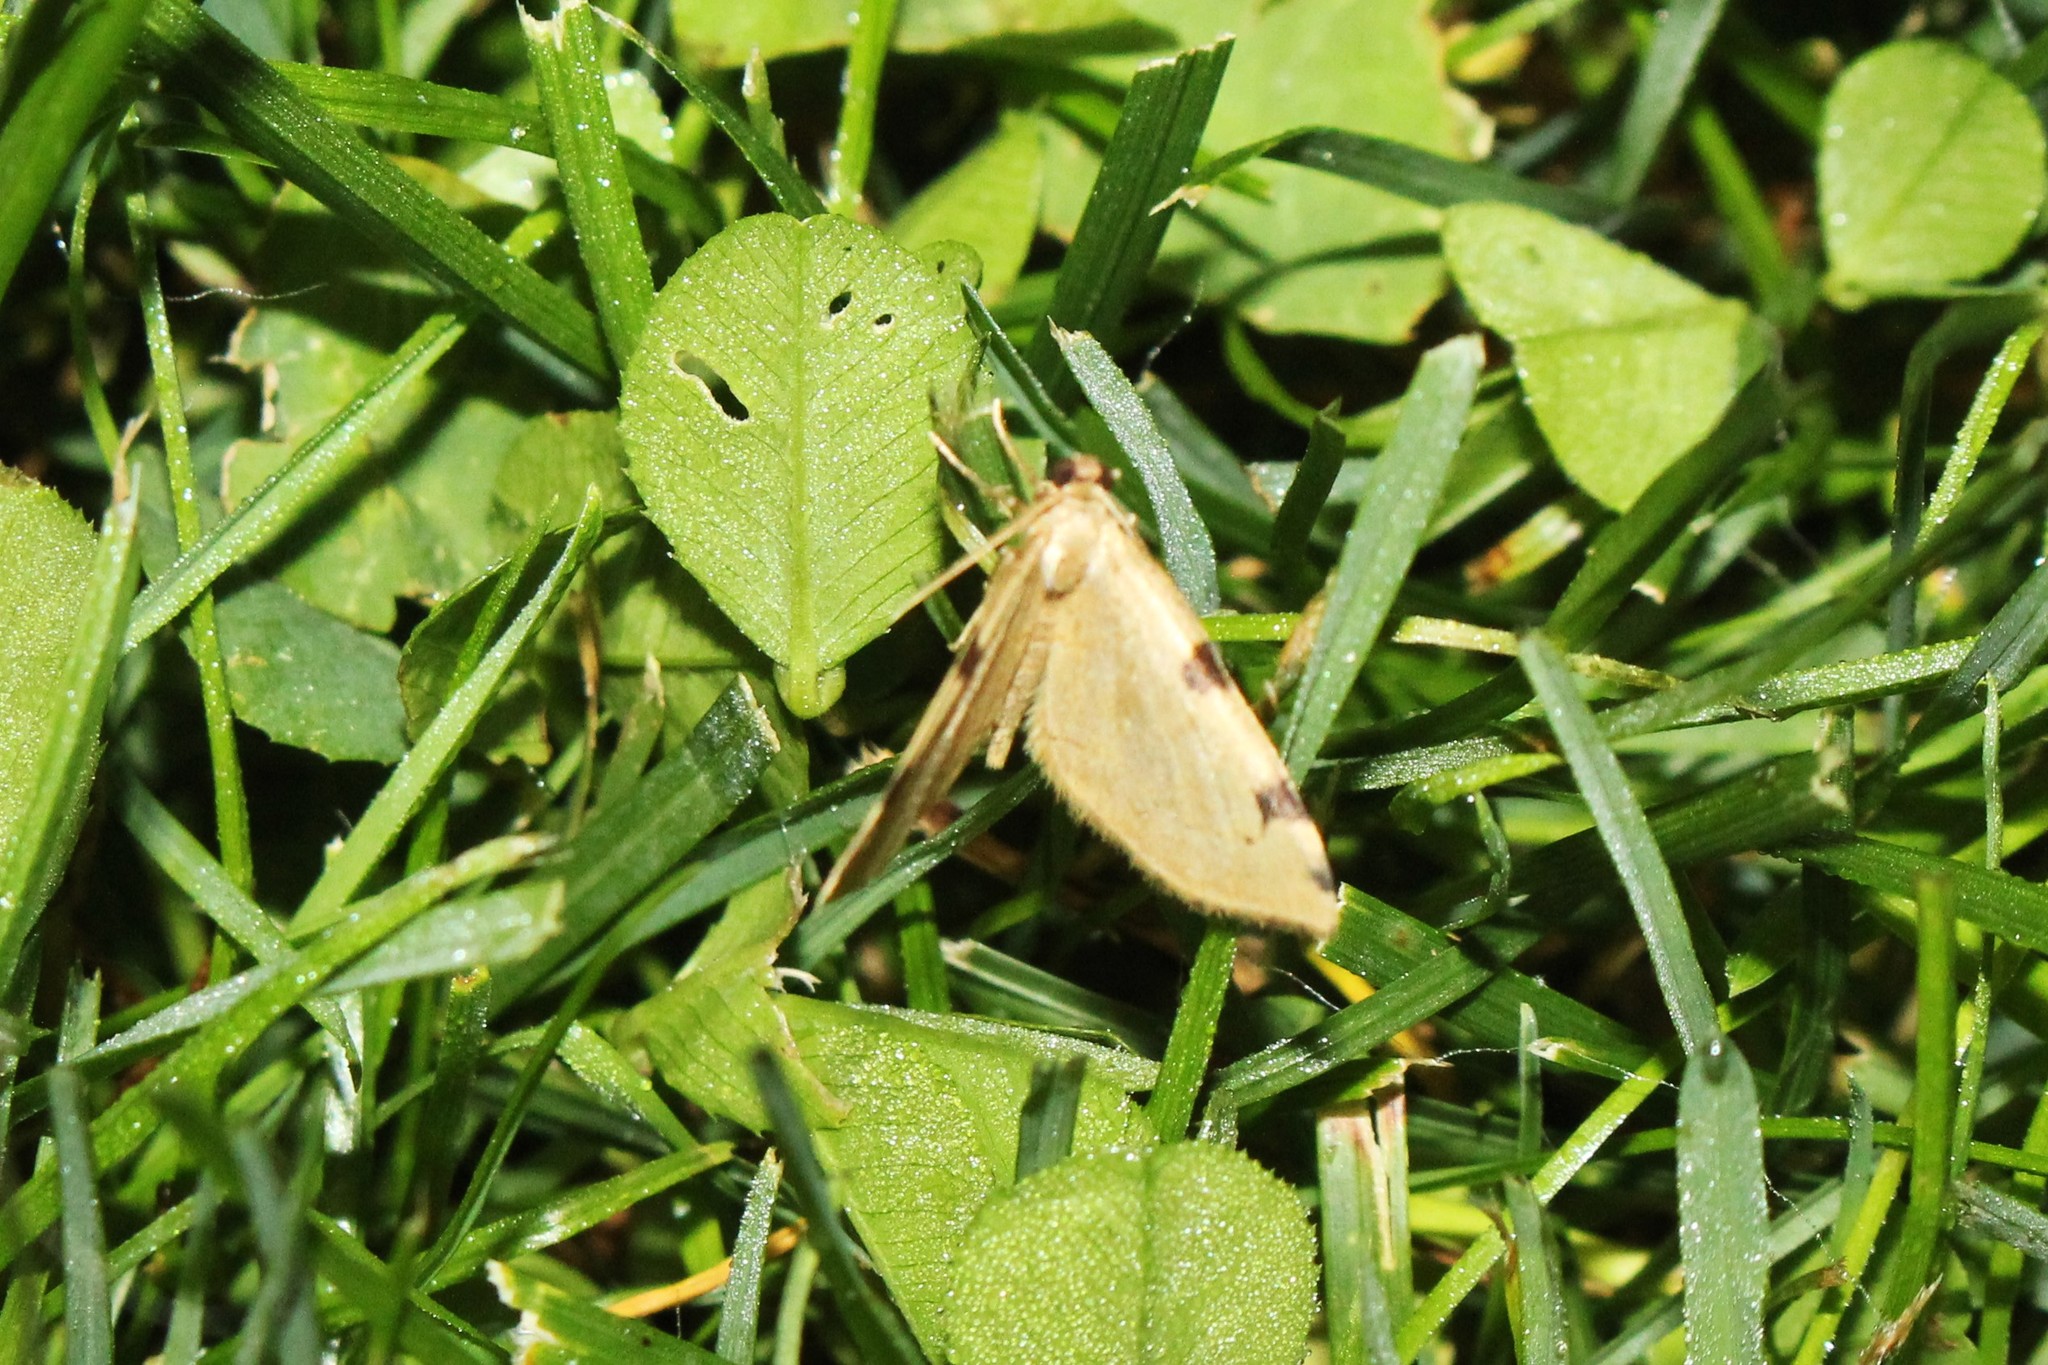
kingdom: Animalia
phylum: Arthropoda
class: Insecta
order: Lepidoptera
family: Geometridae
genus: Heterophleps
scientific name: Heterophleps triguttaria
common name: Three-spotted fillip
